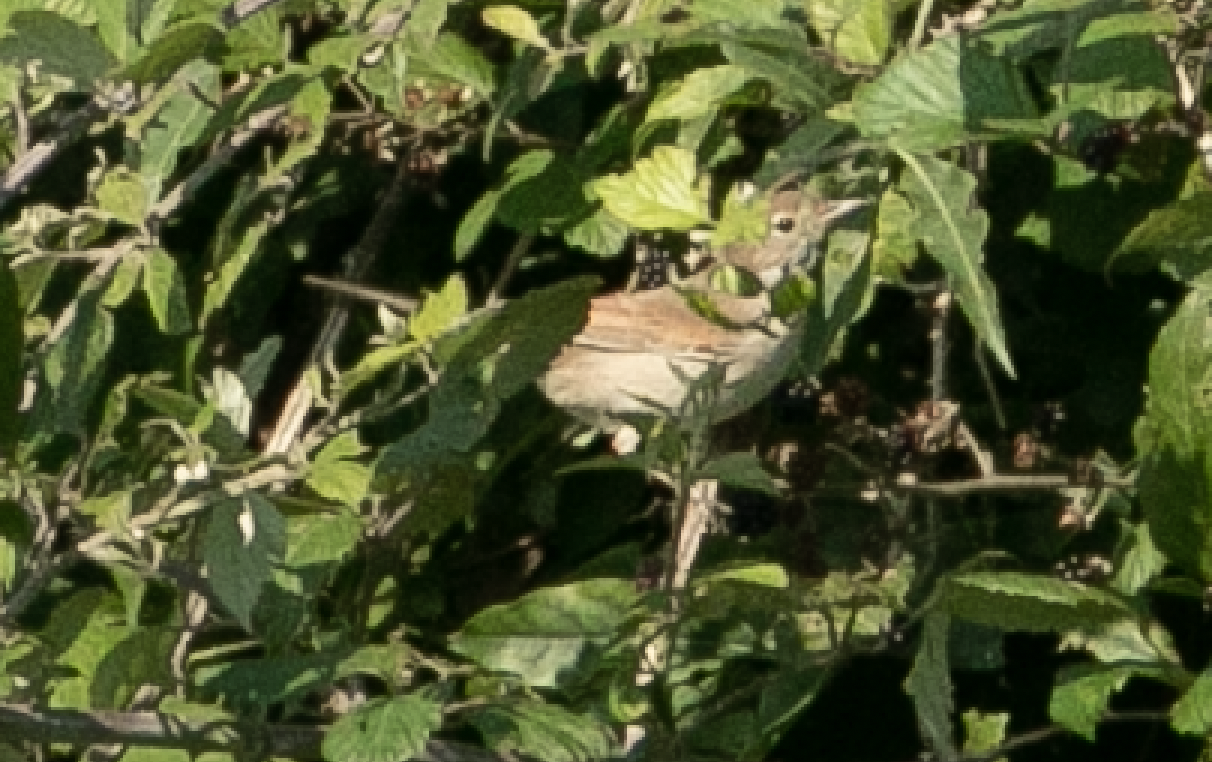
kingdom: Animalia
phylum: Chordata
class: Aves
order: Passeriformes
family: Sylviidae
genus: Sylvia
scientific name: Sylvia communis
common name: Common whitethroat
